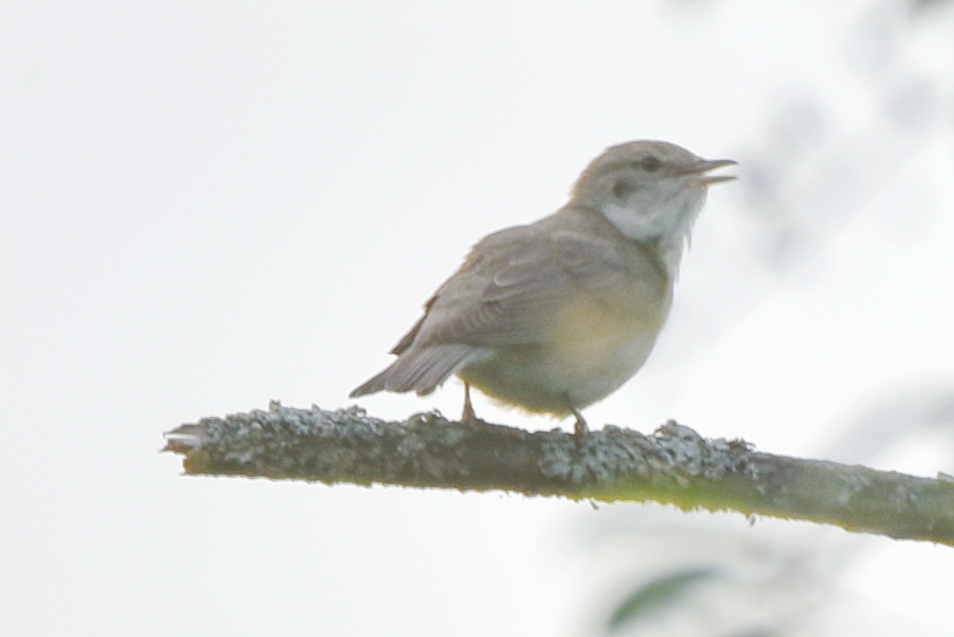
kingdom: Animalia
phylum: Chordata
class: Aves
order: Passeriformes
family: Sylviidae
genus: Sylvia
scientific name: Sylvia borin
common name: Garden warbler
